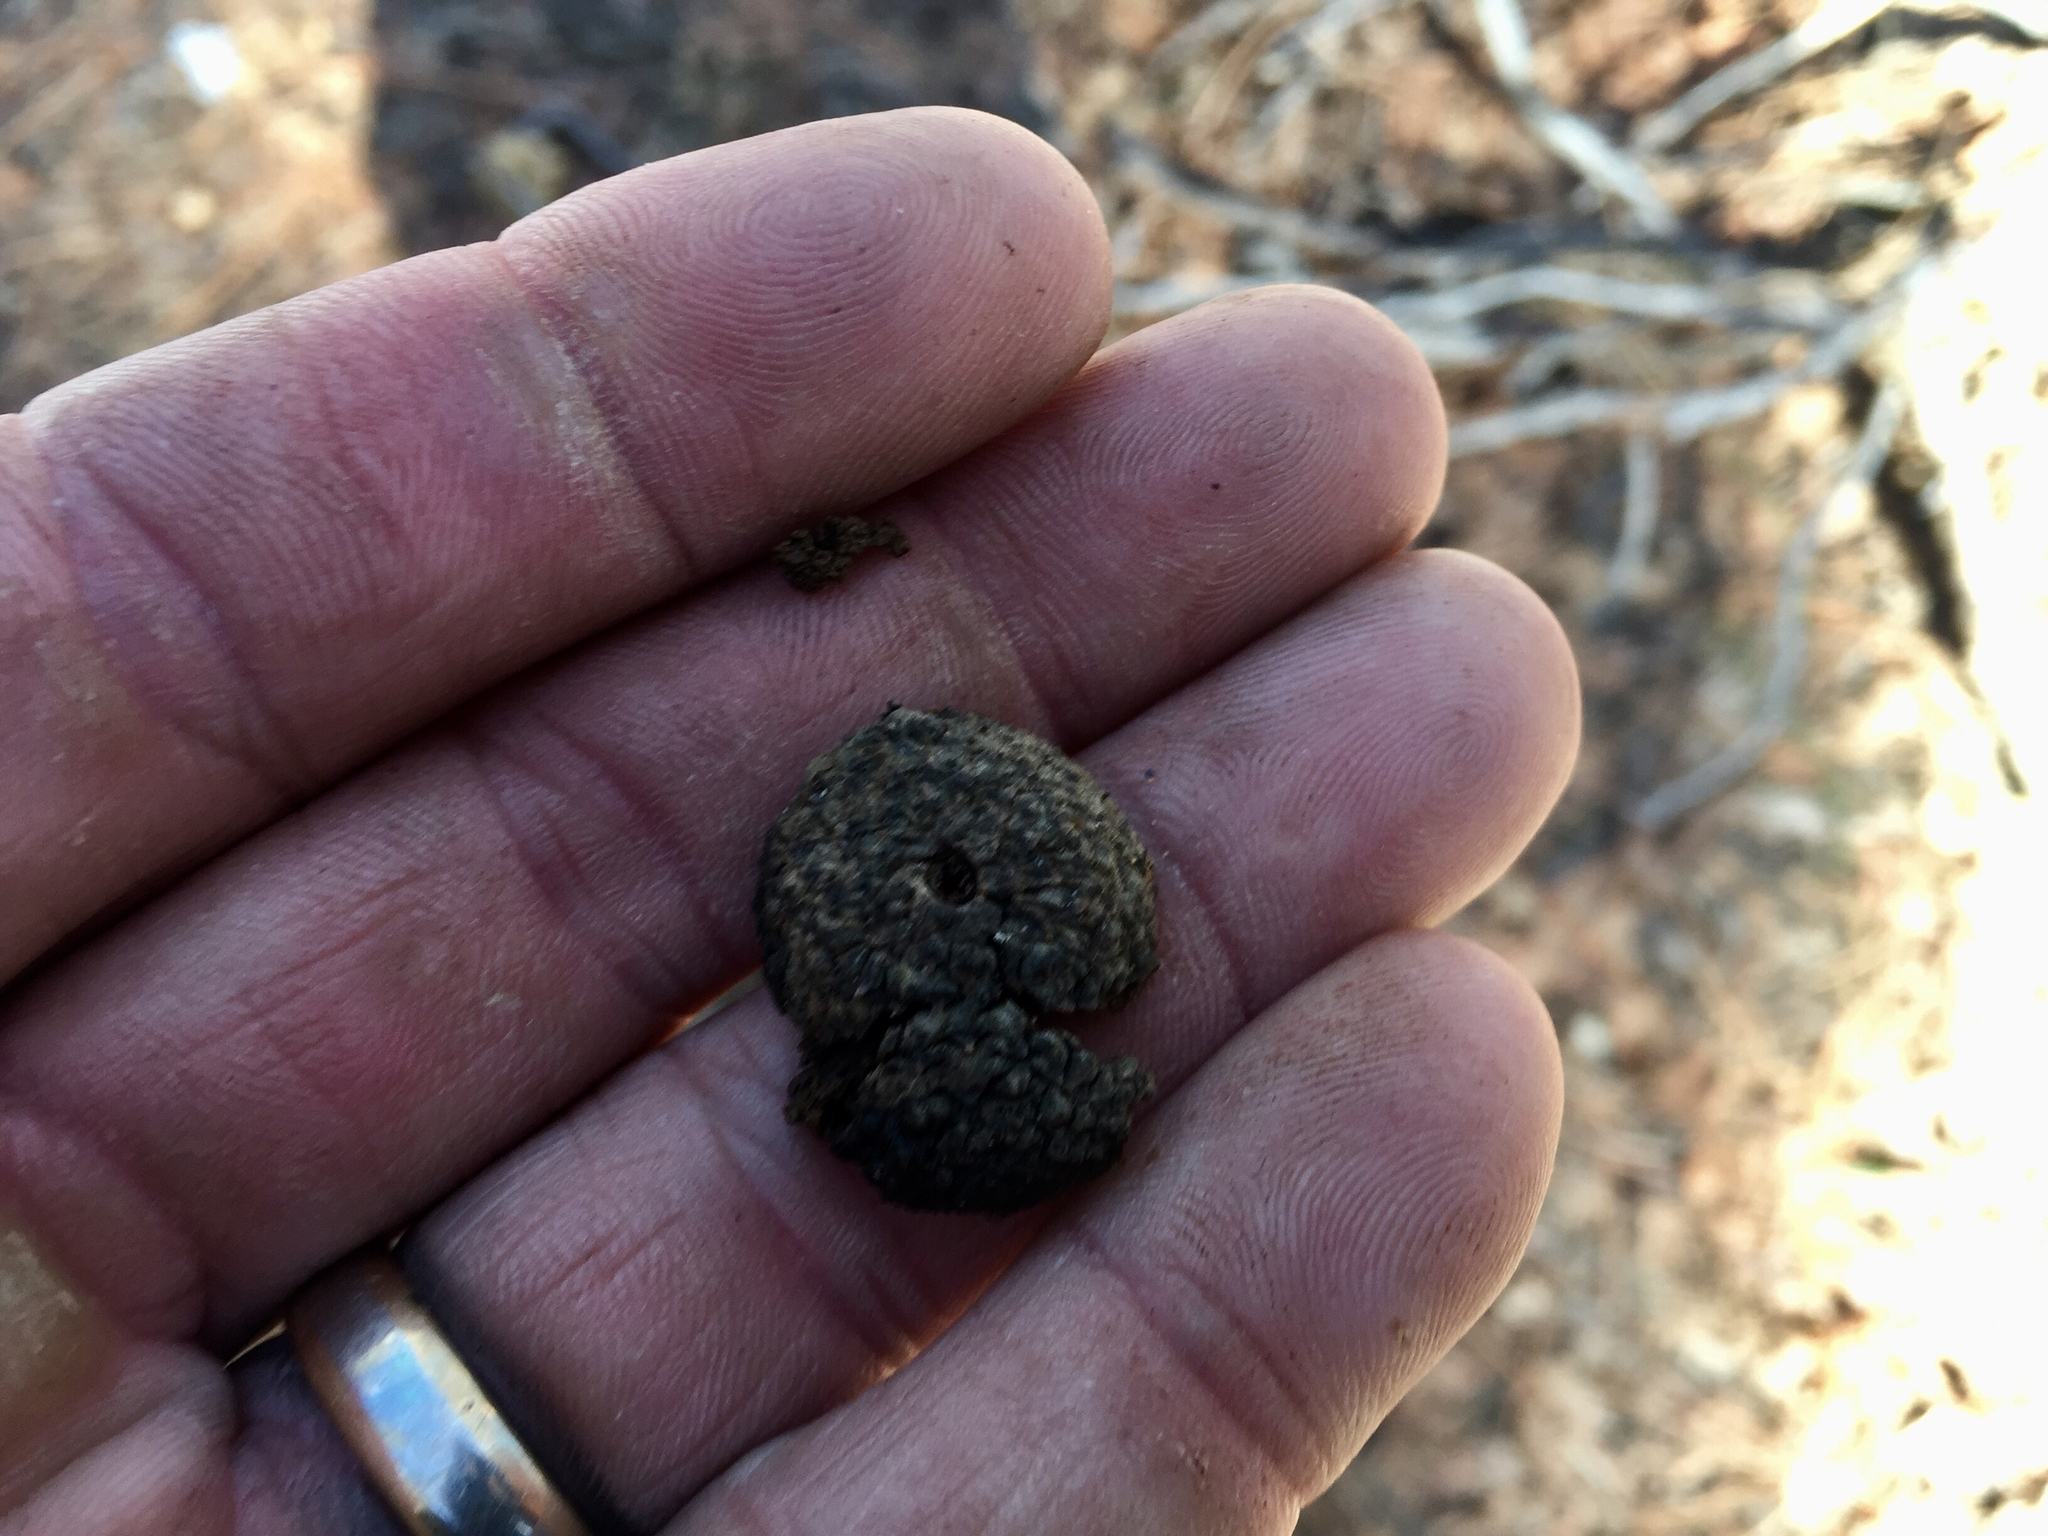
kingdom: Plantae
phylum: Tracheophyta
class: Magnoliopsida
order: Fagales
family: Fagaceae
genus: Quercus
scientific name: Quercus gambelii
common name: Gambel oak
